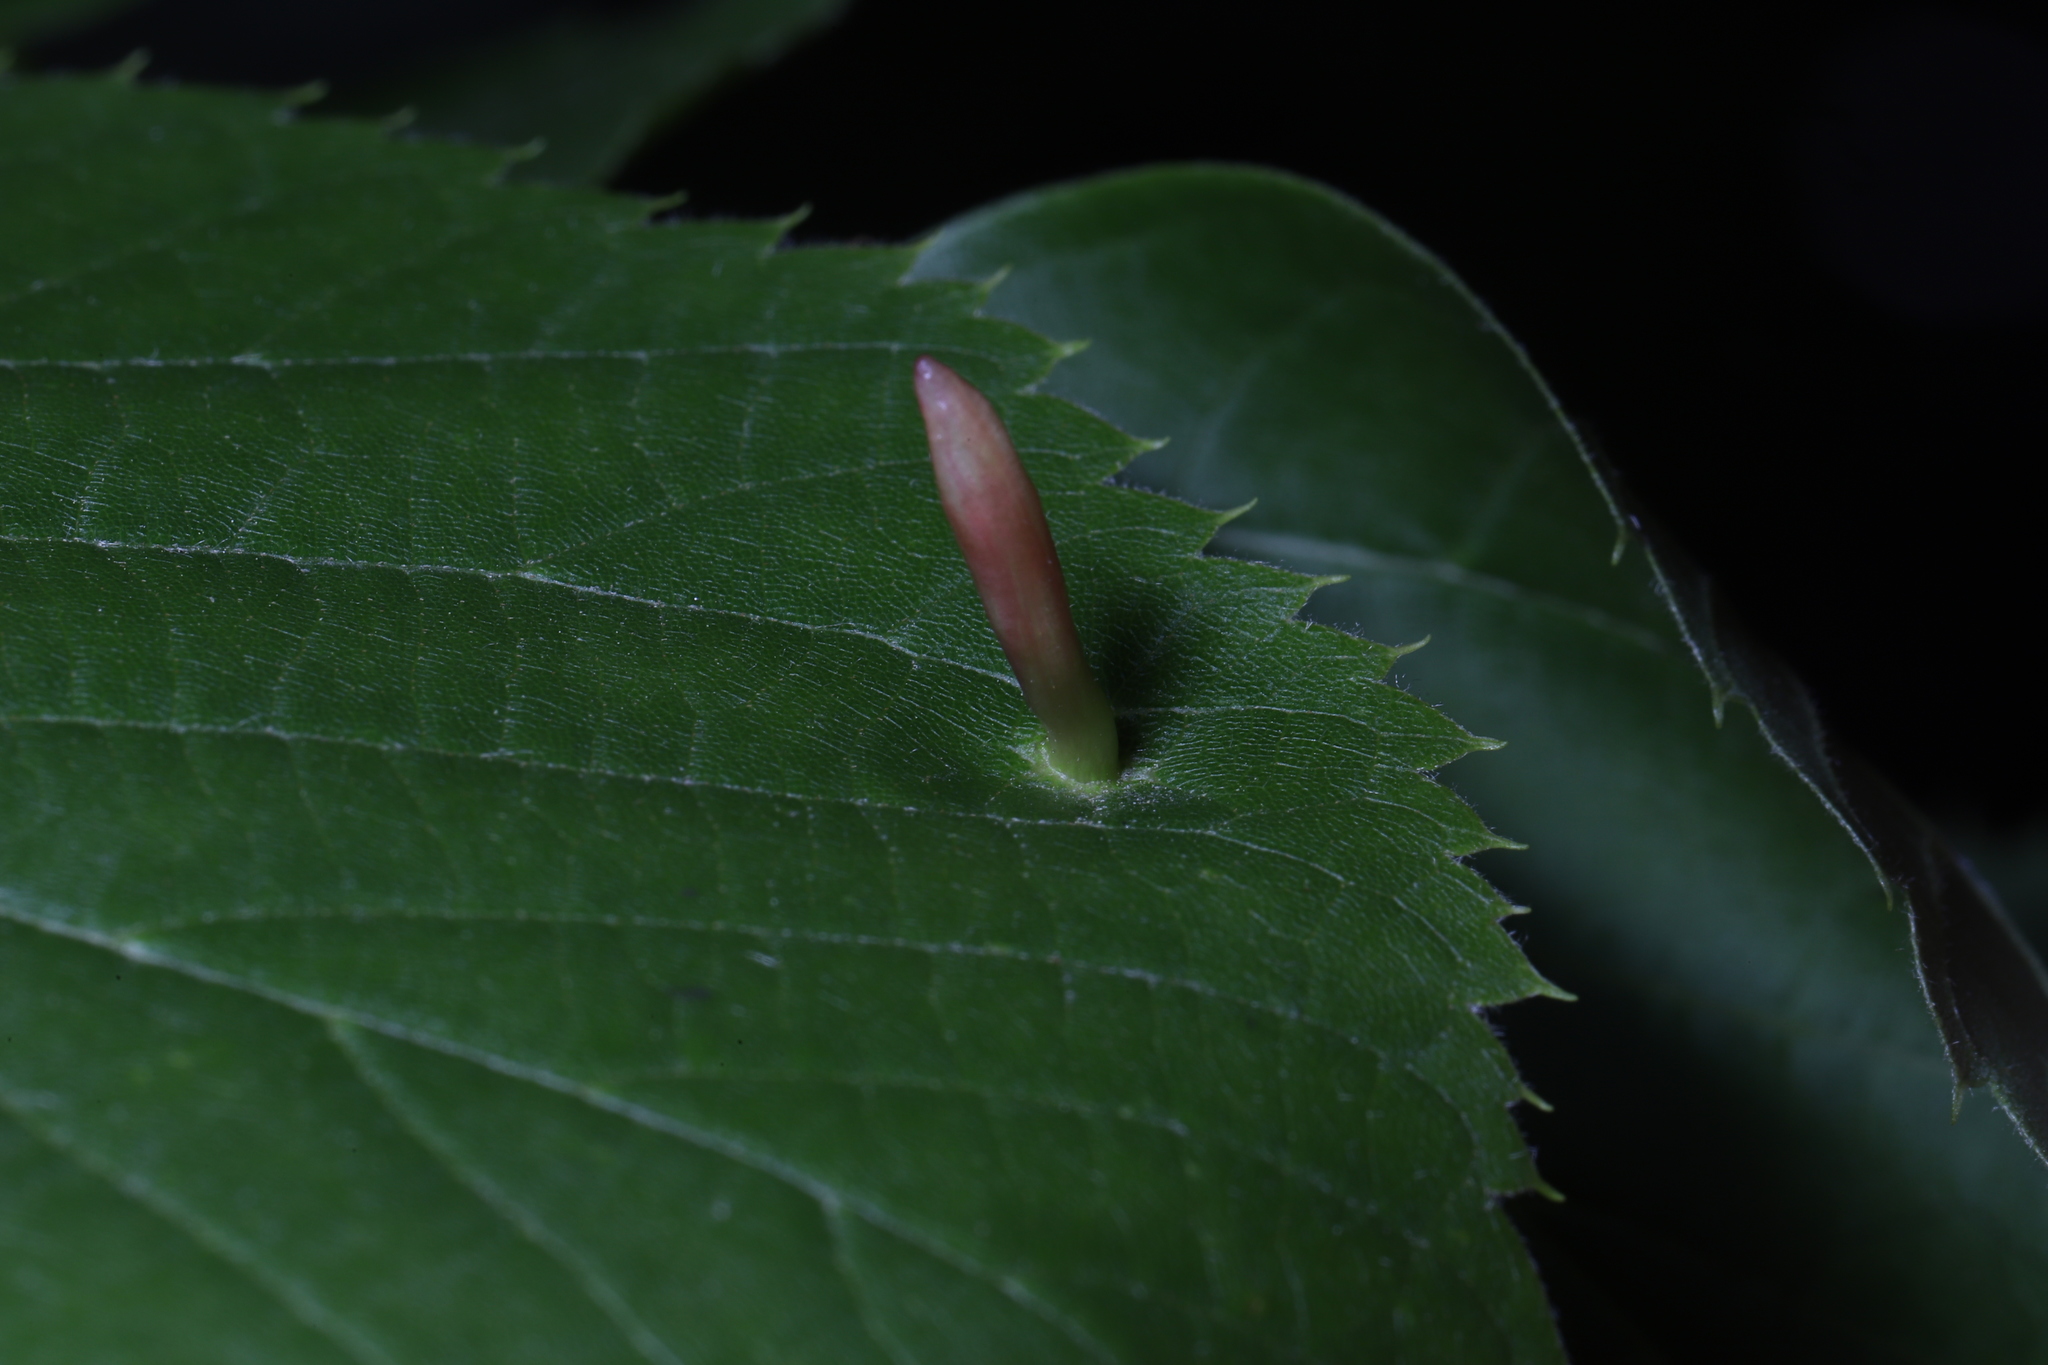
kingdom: Animalia
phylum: Arthropoda
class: Arachnida
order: Trombidiformes
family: Eriophyidae
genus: Eriophyes
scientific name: Eriophyes tiliae
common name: Red nail gall mite
